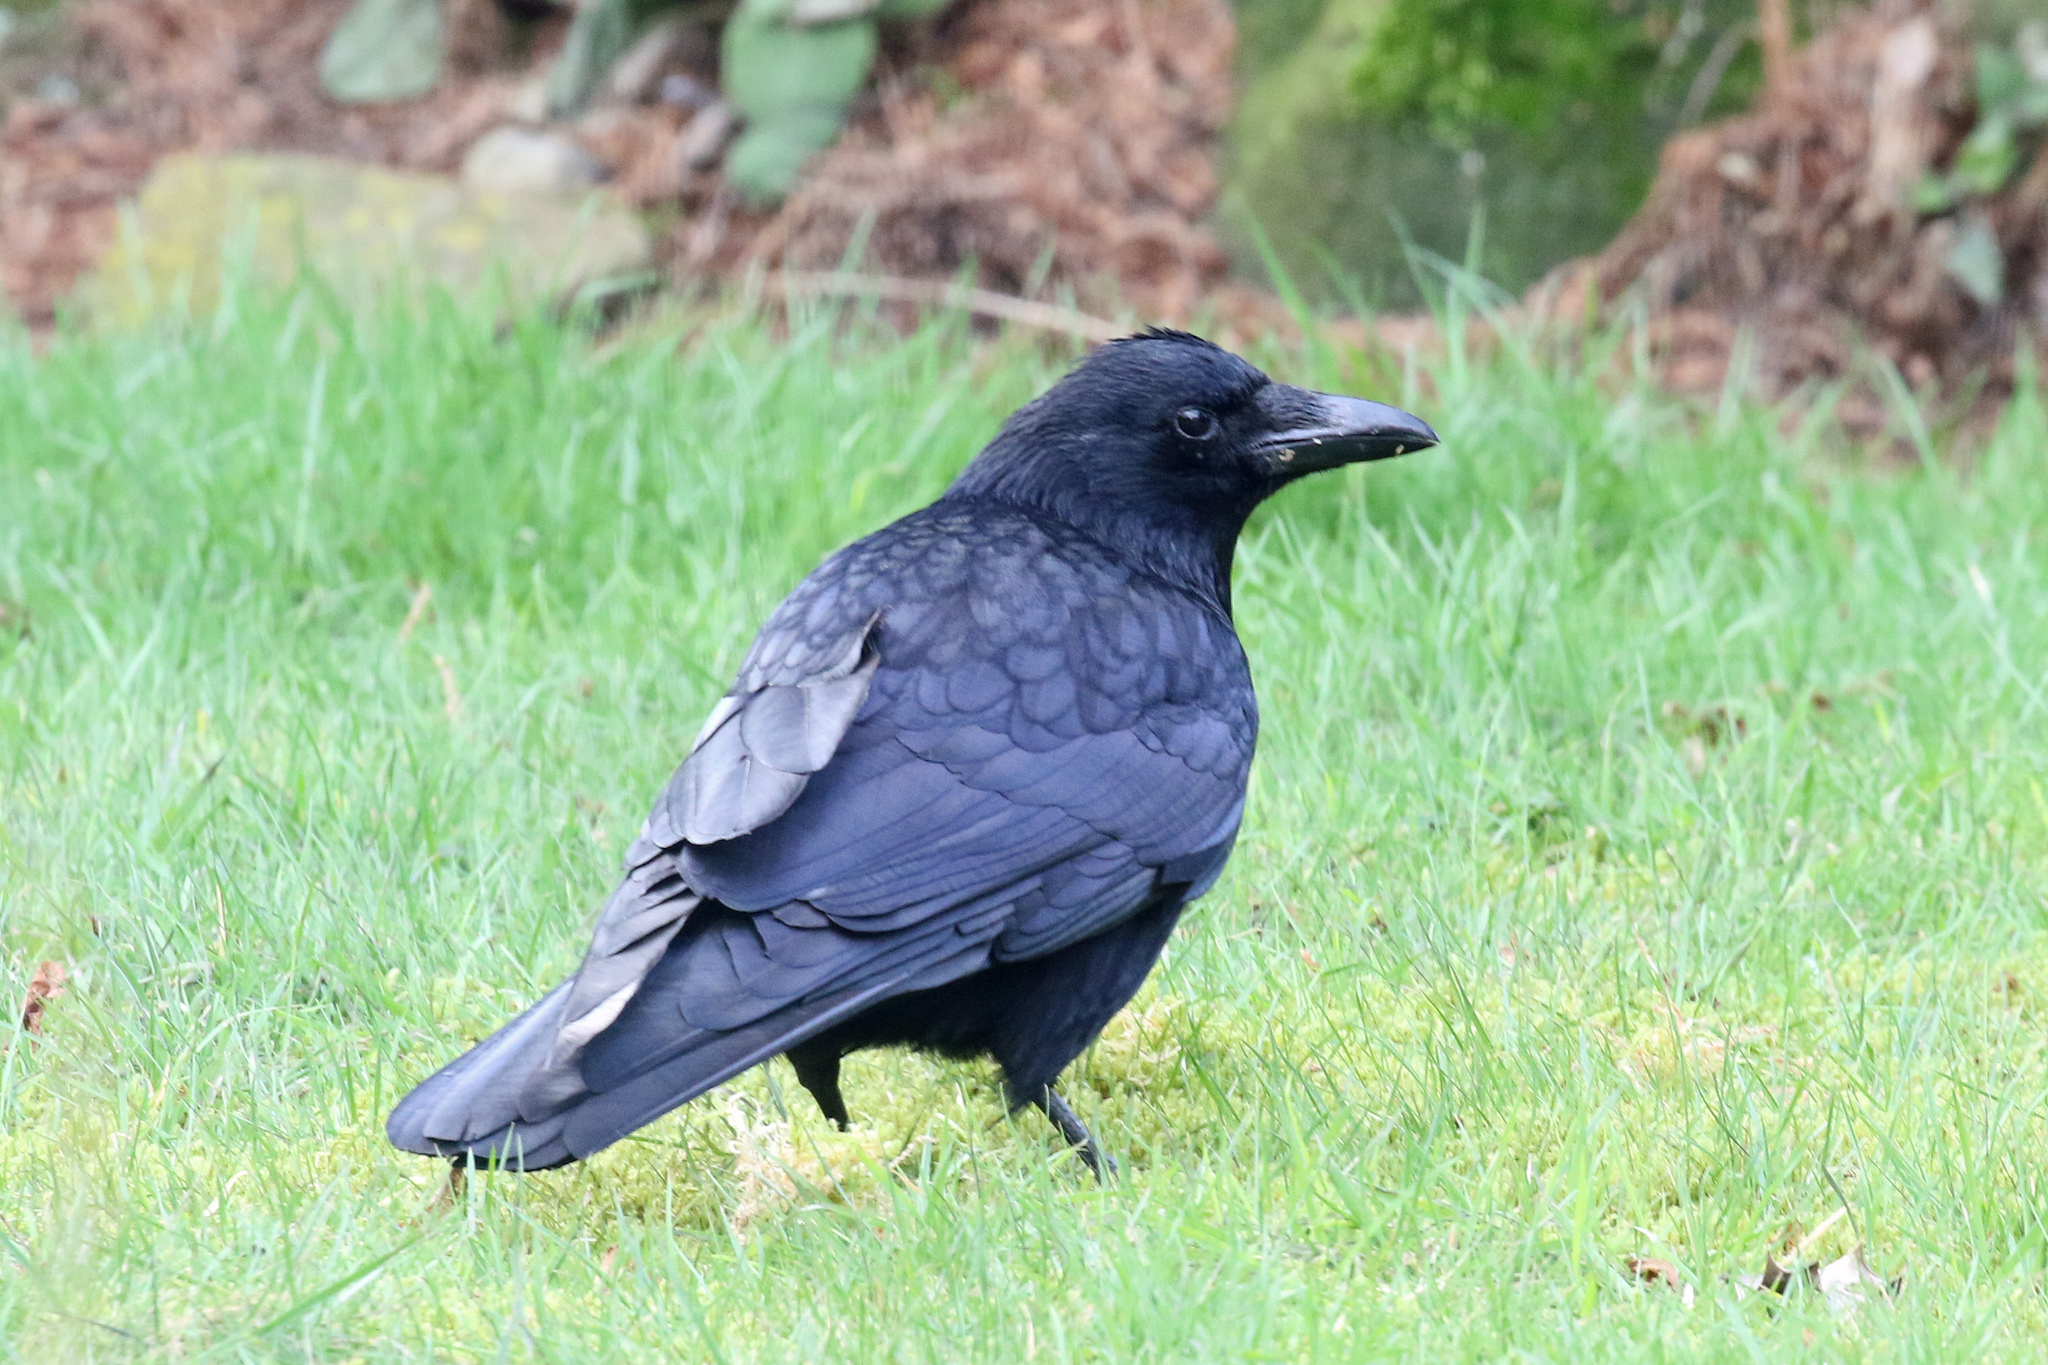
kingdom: Animalia
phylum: Chordata
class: Aves
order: Passeriformes
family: Corvidae
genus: Corvus
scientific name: Corvus corone
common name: Carrion crow
